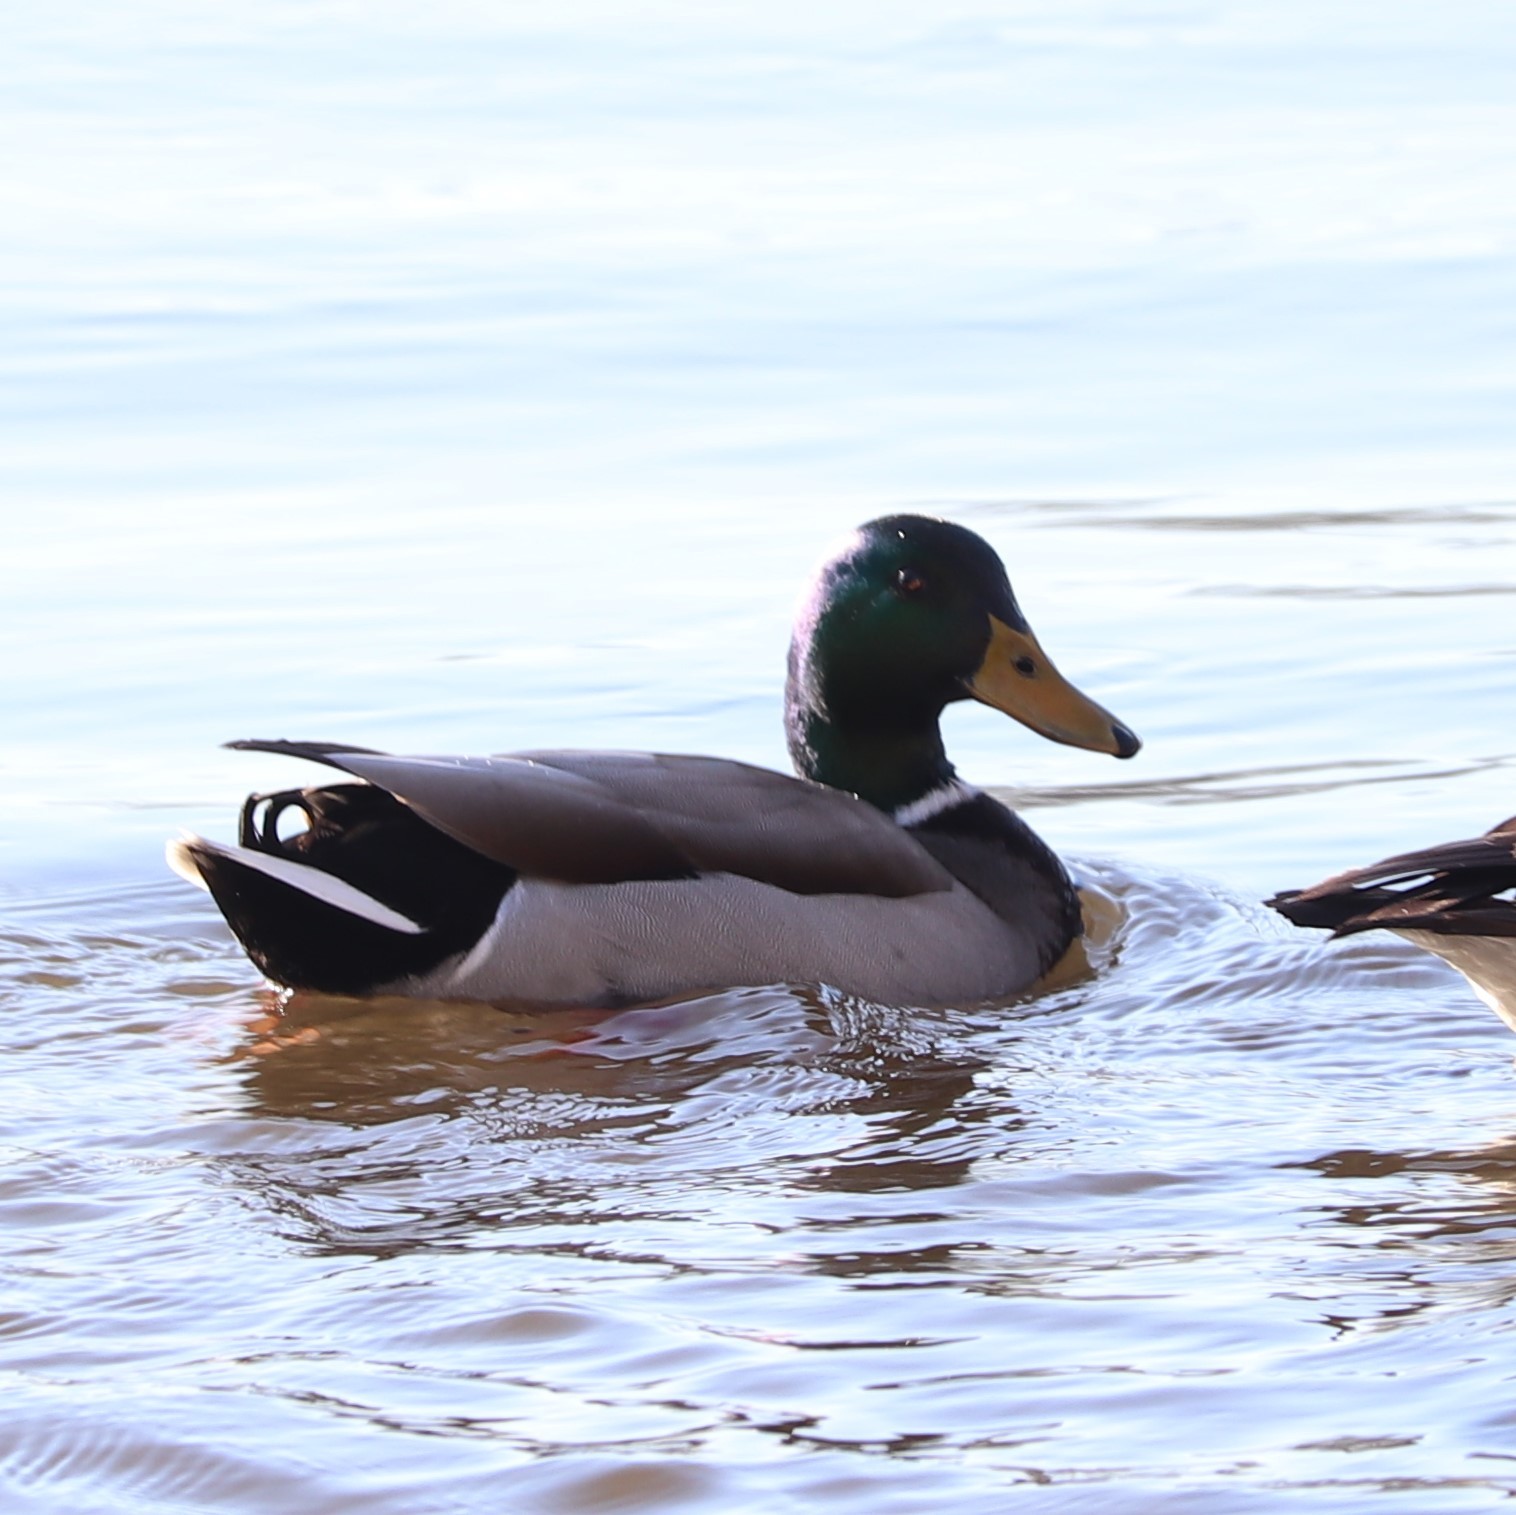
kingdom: Animalia
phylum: Chordata
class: Aves
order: Anseriformes
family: Anatidae
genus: Anas
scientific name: Anas platyrhynchos
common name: Mallard
